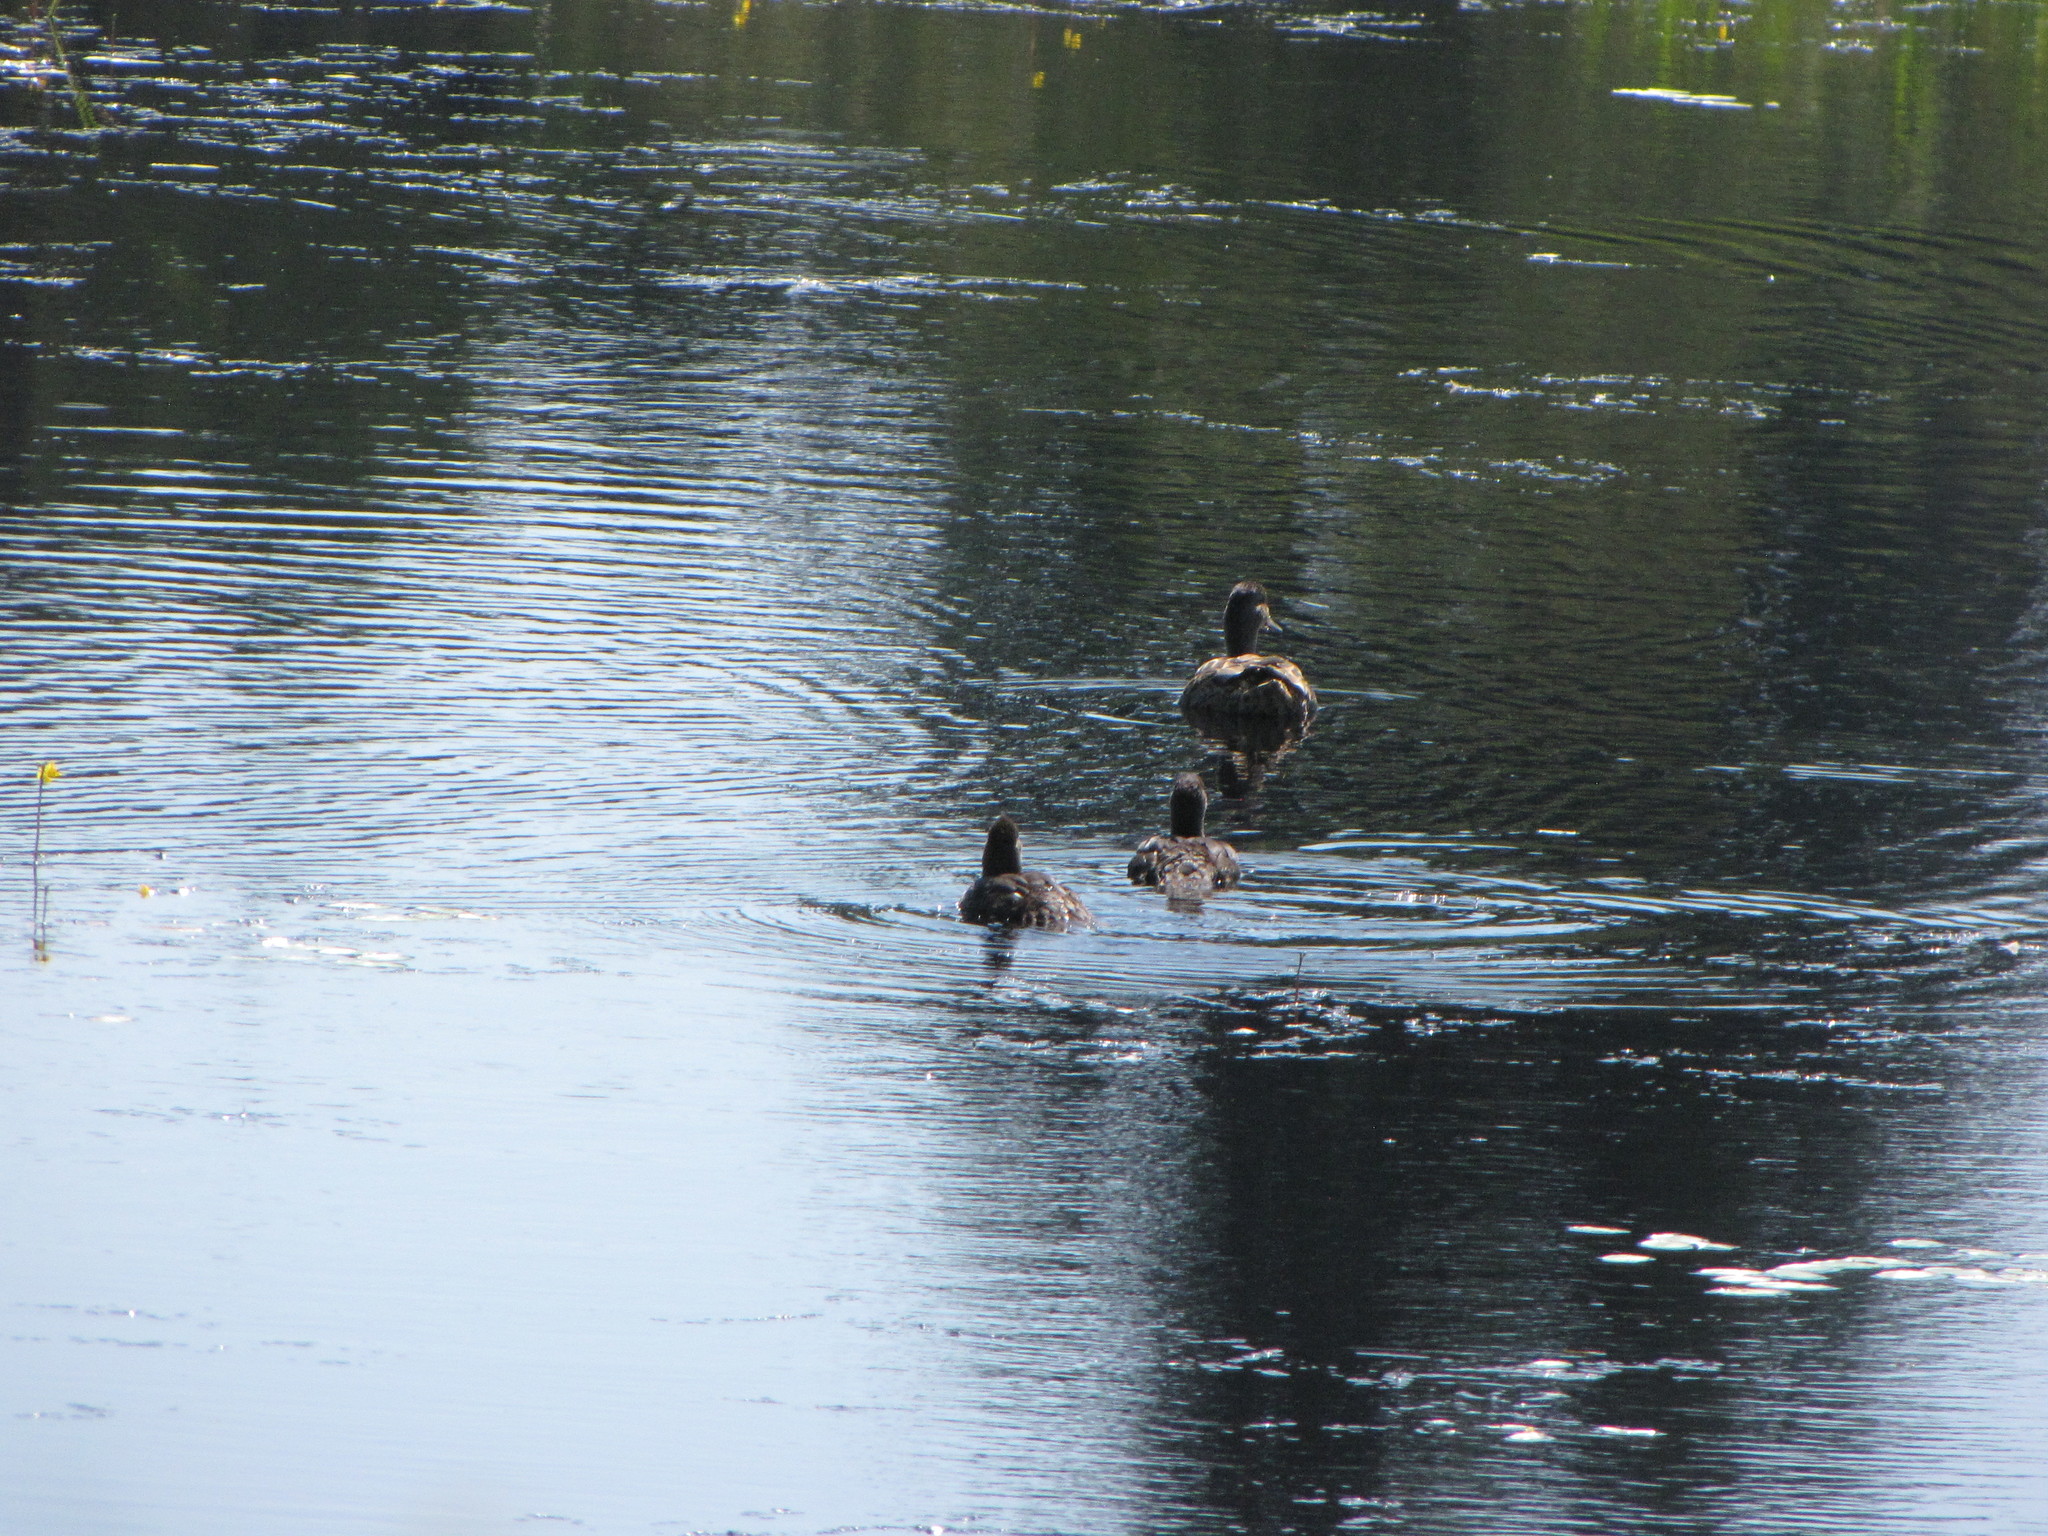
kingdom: Animalia
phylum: Chordata
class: Aves
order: Anseriformes
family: Anatidae
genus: Anas
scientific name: Anas platyrhynchos
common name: Mallard
